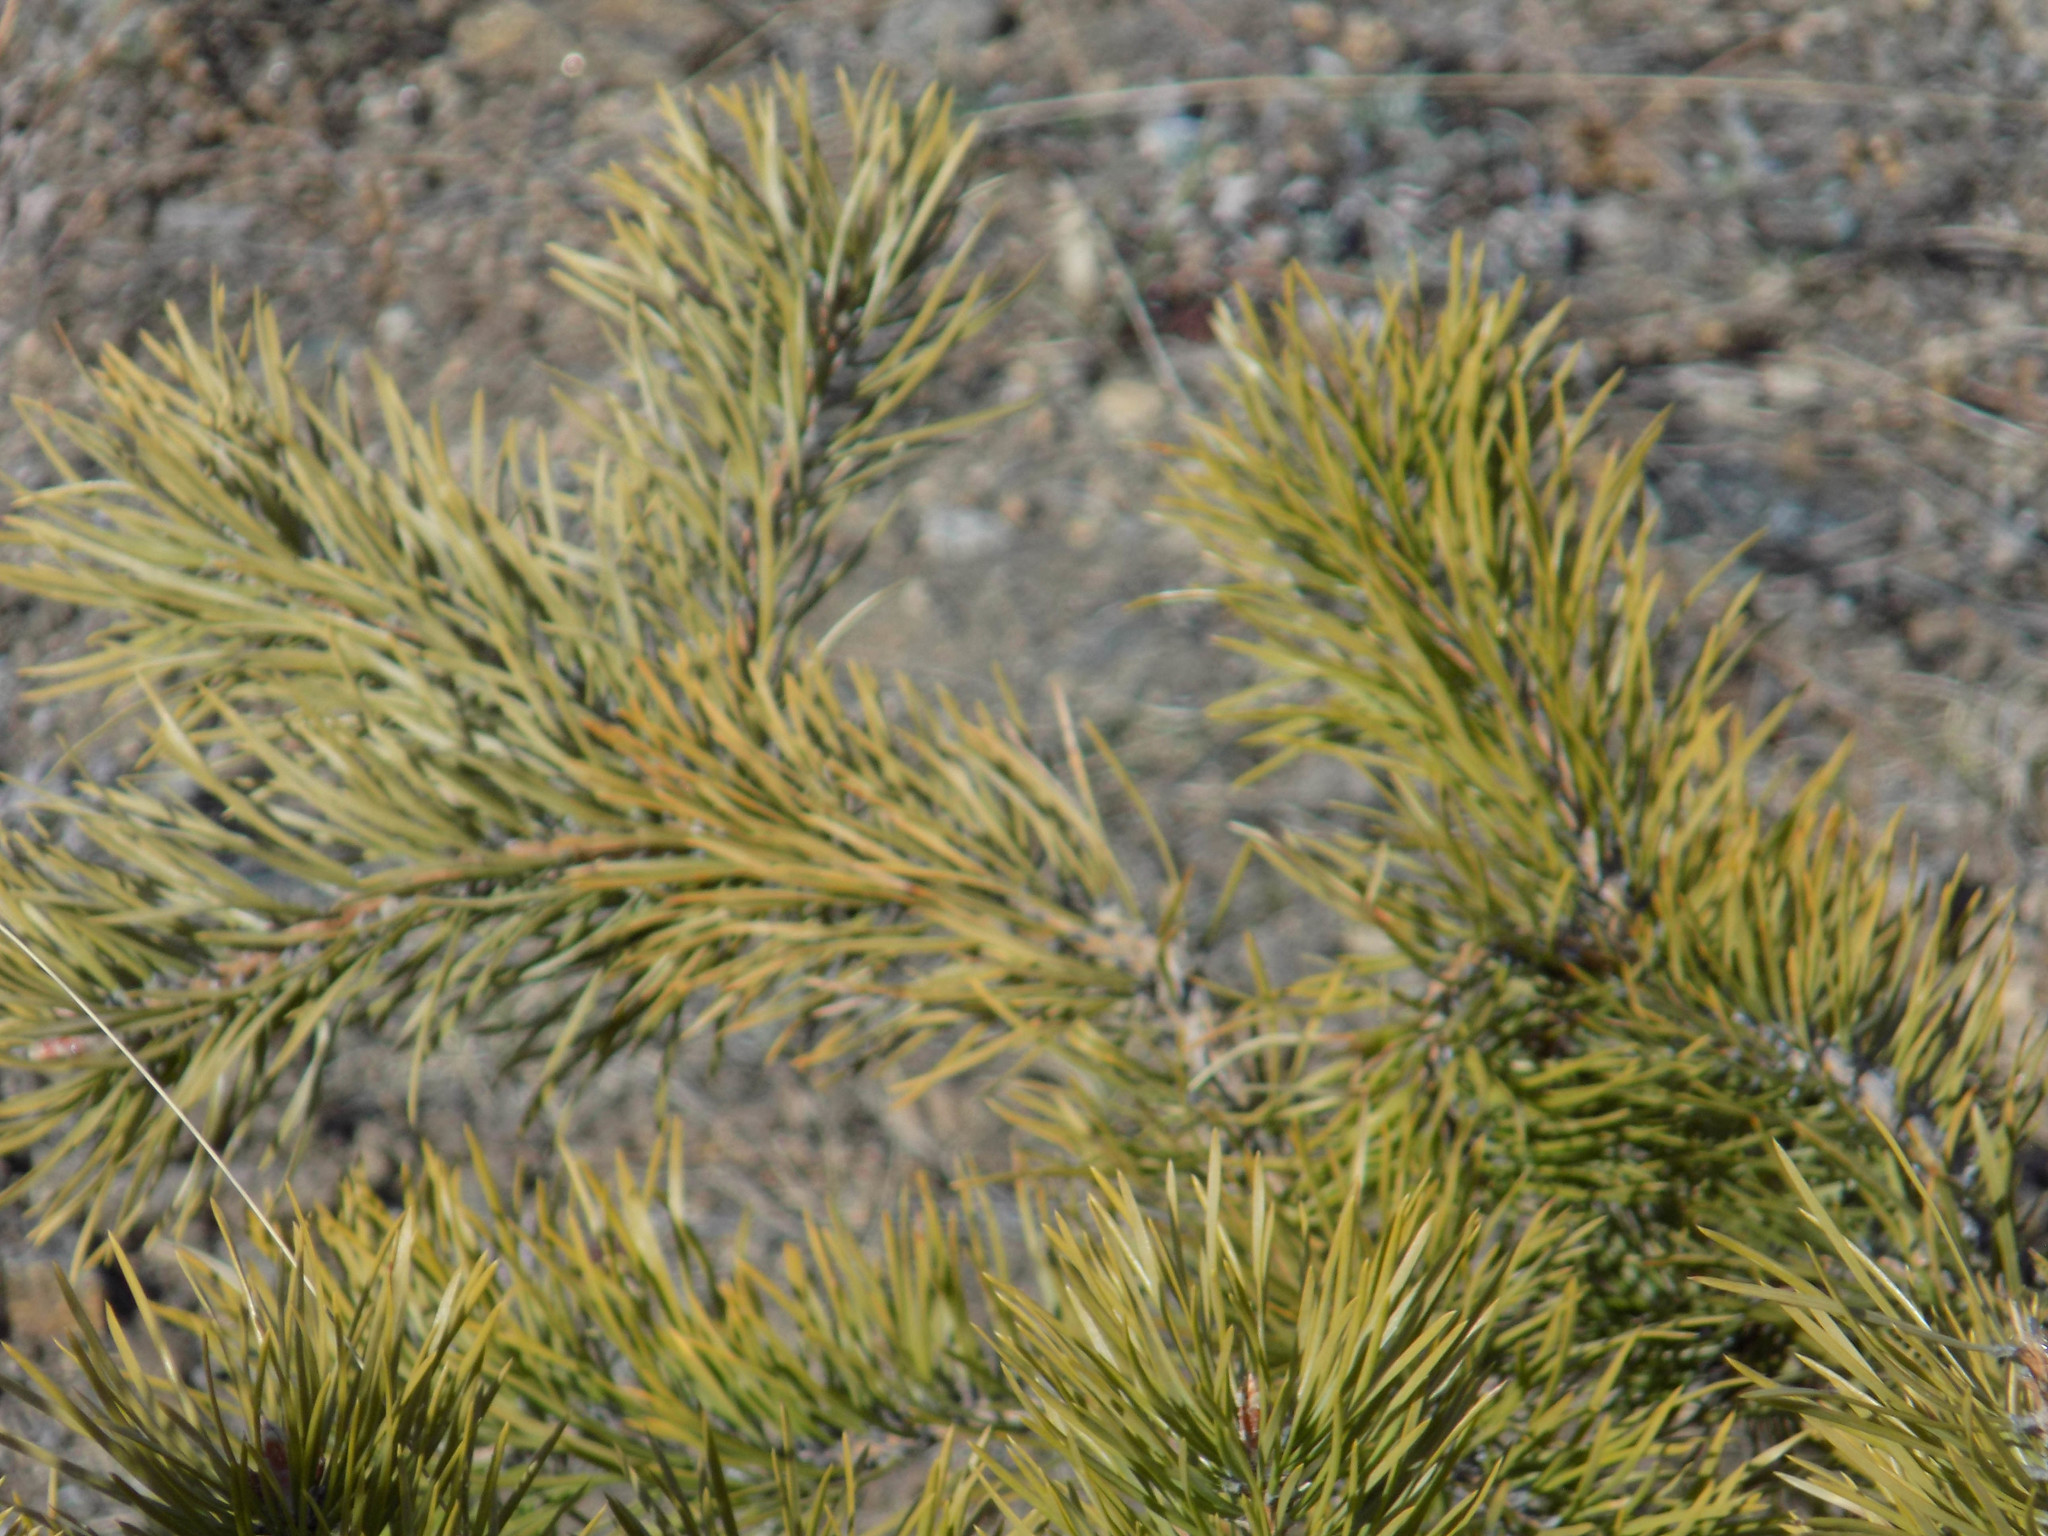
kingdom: Plantae
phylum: Tracheophyta
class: Pinopsida
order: Pinales
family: Pinaceae
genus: Pinus
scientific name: Pinus sylvestris
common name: Scots pine
